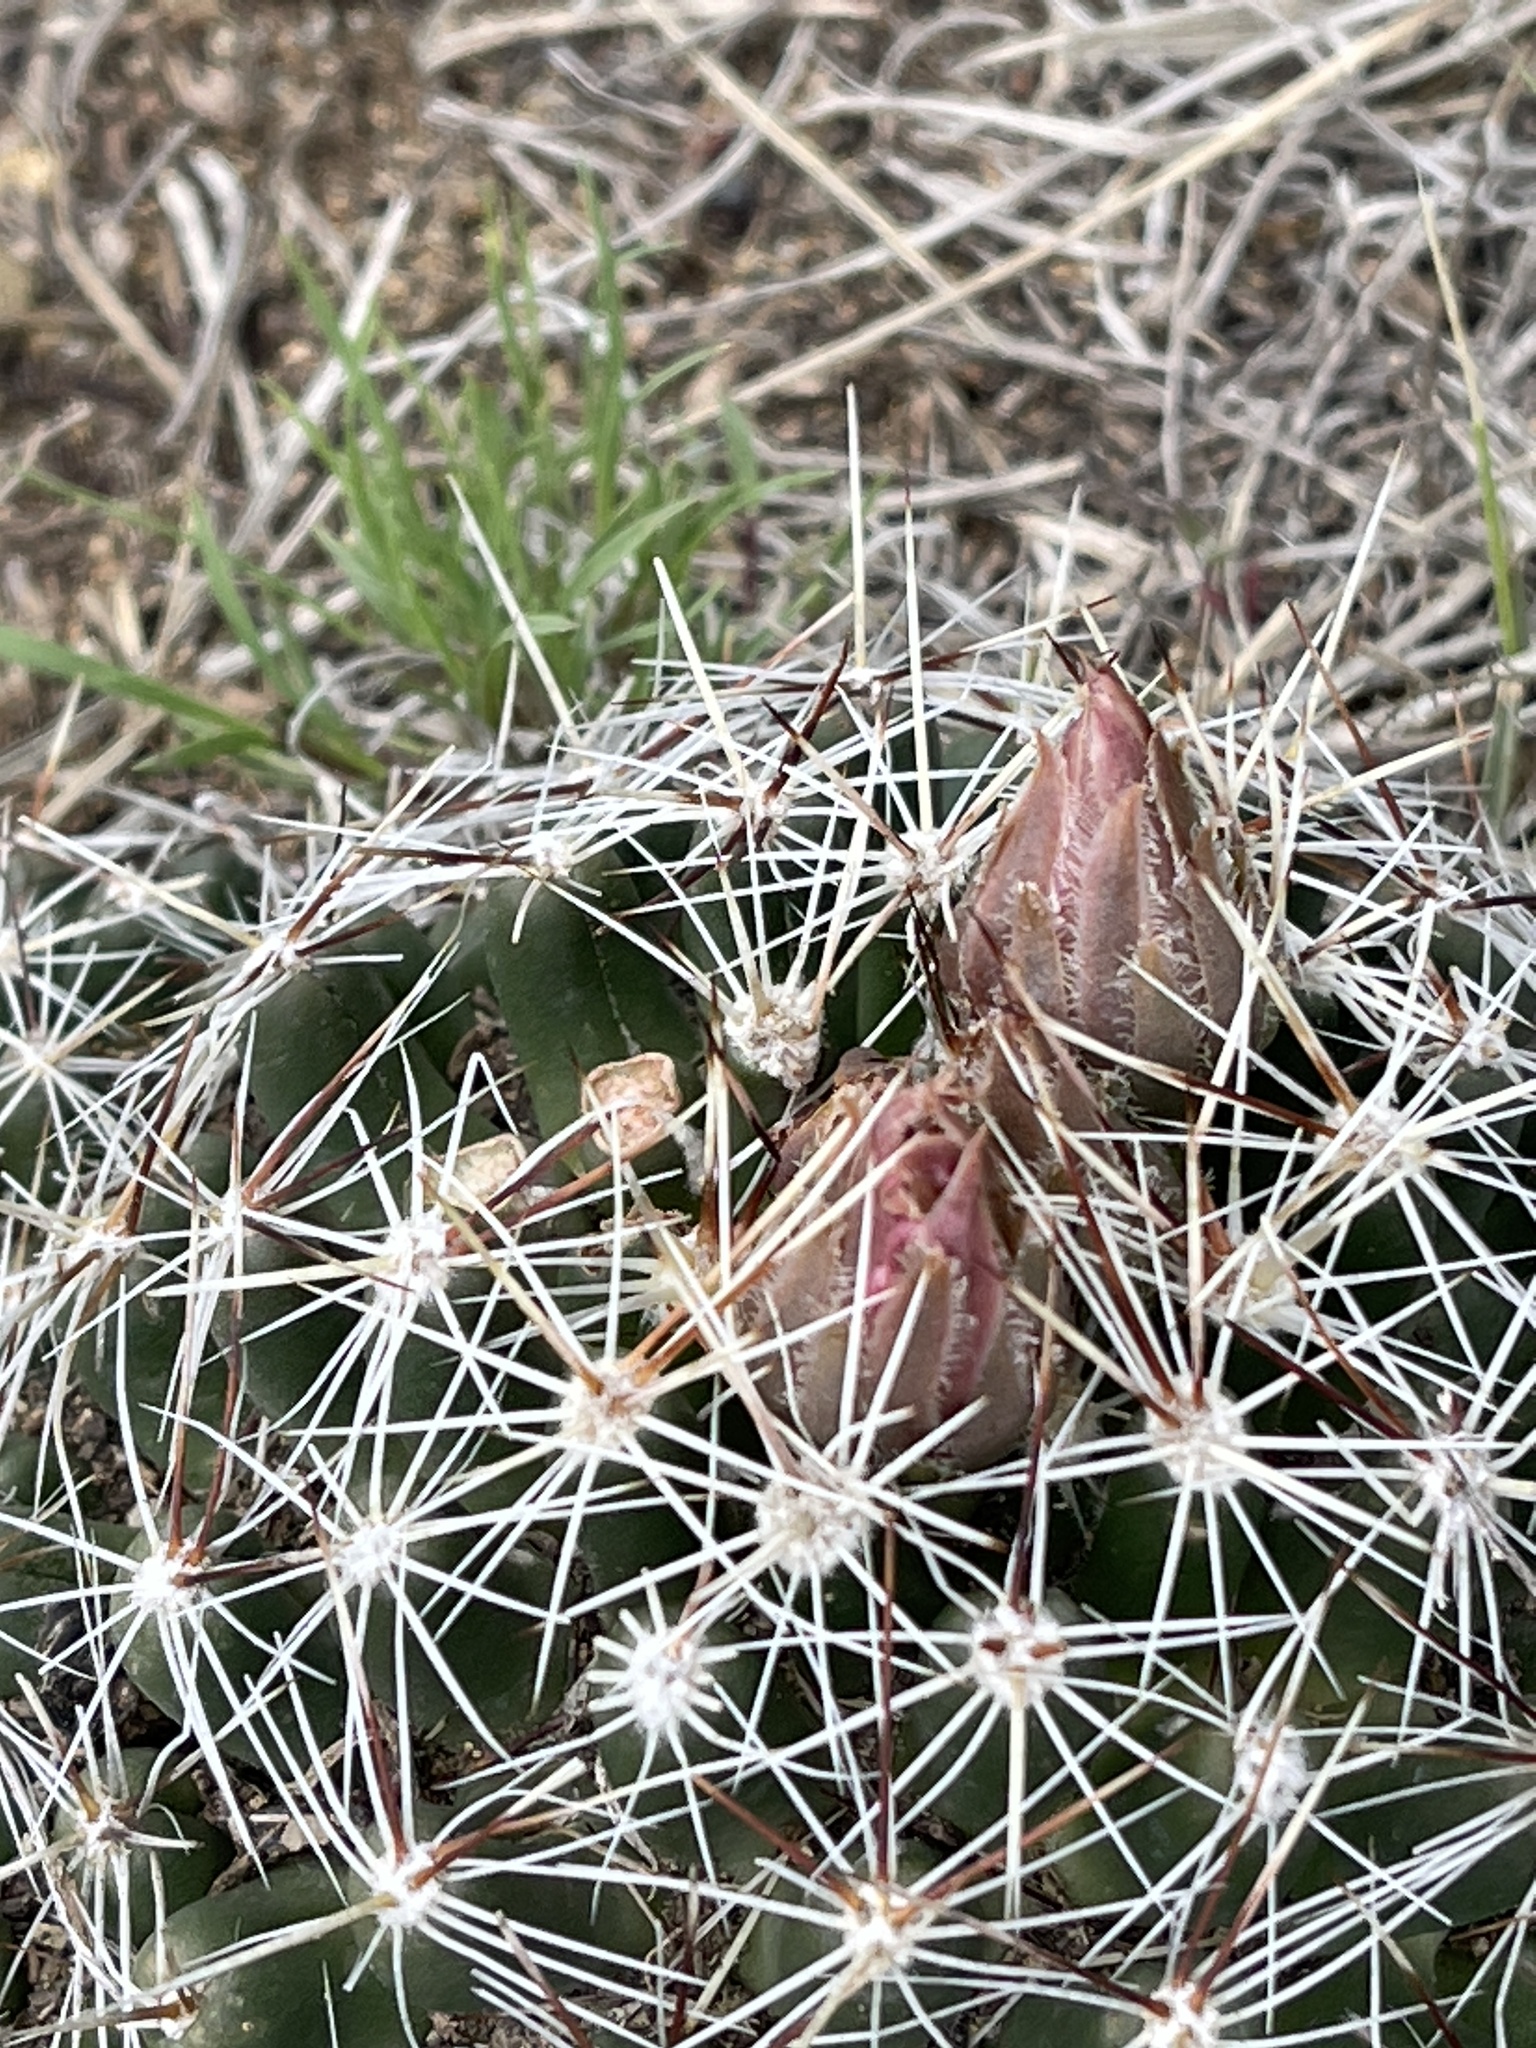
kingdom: Plantae
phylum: Tracheophyta
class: Magnoliopsida
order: Caryophyllales
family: Cactaceae
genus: Pelecyphora
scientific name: Pelecyphora vivipara
